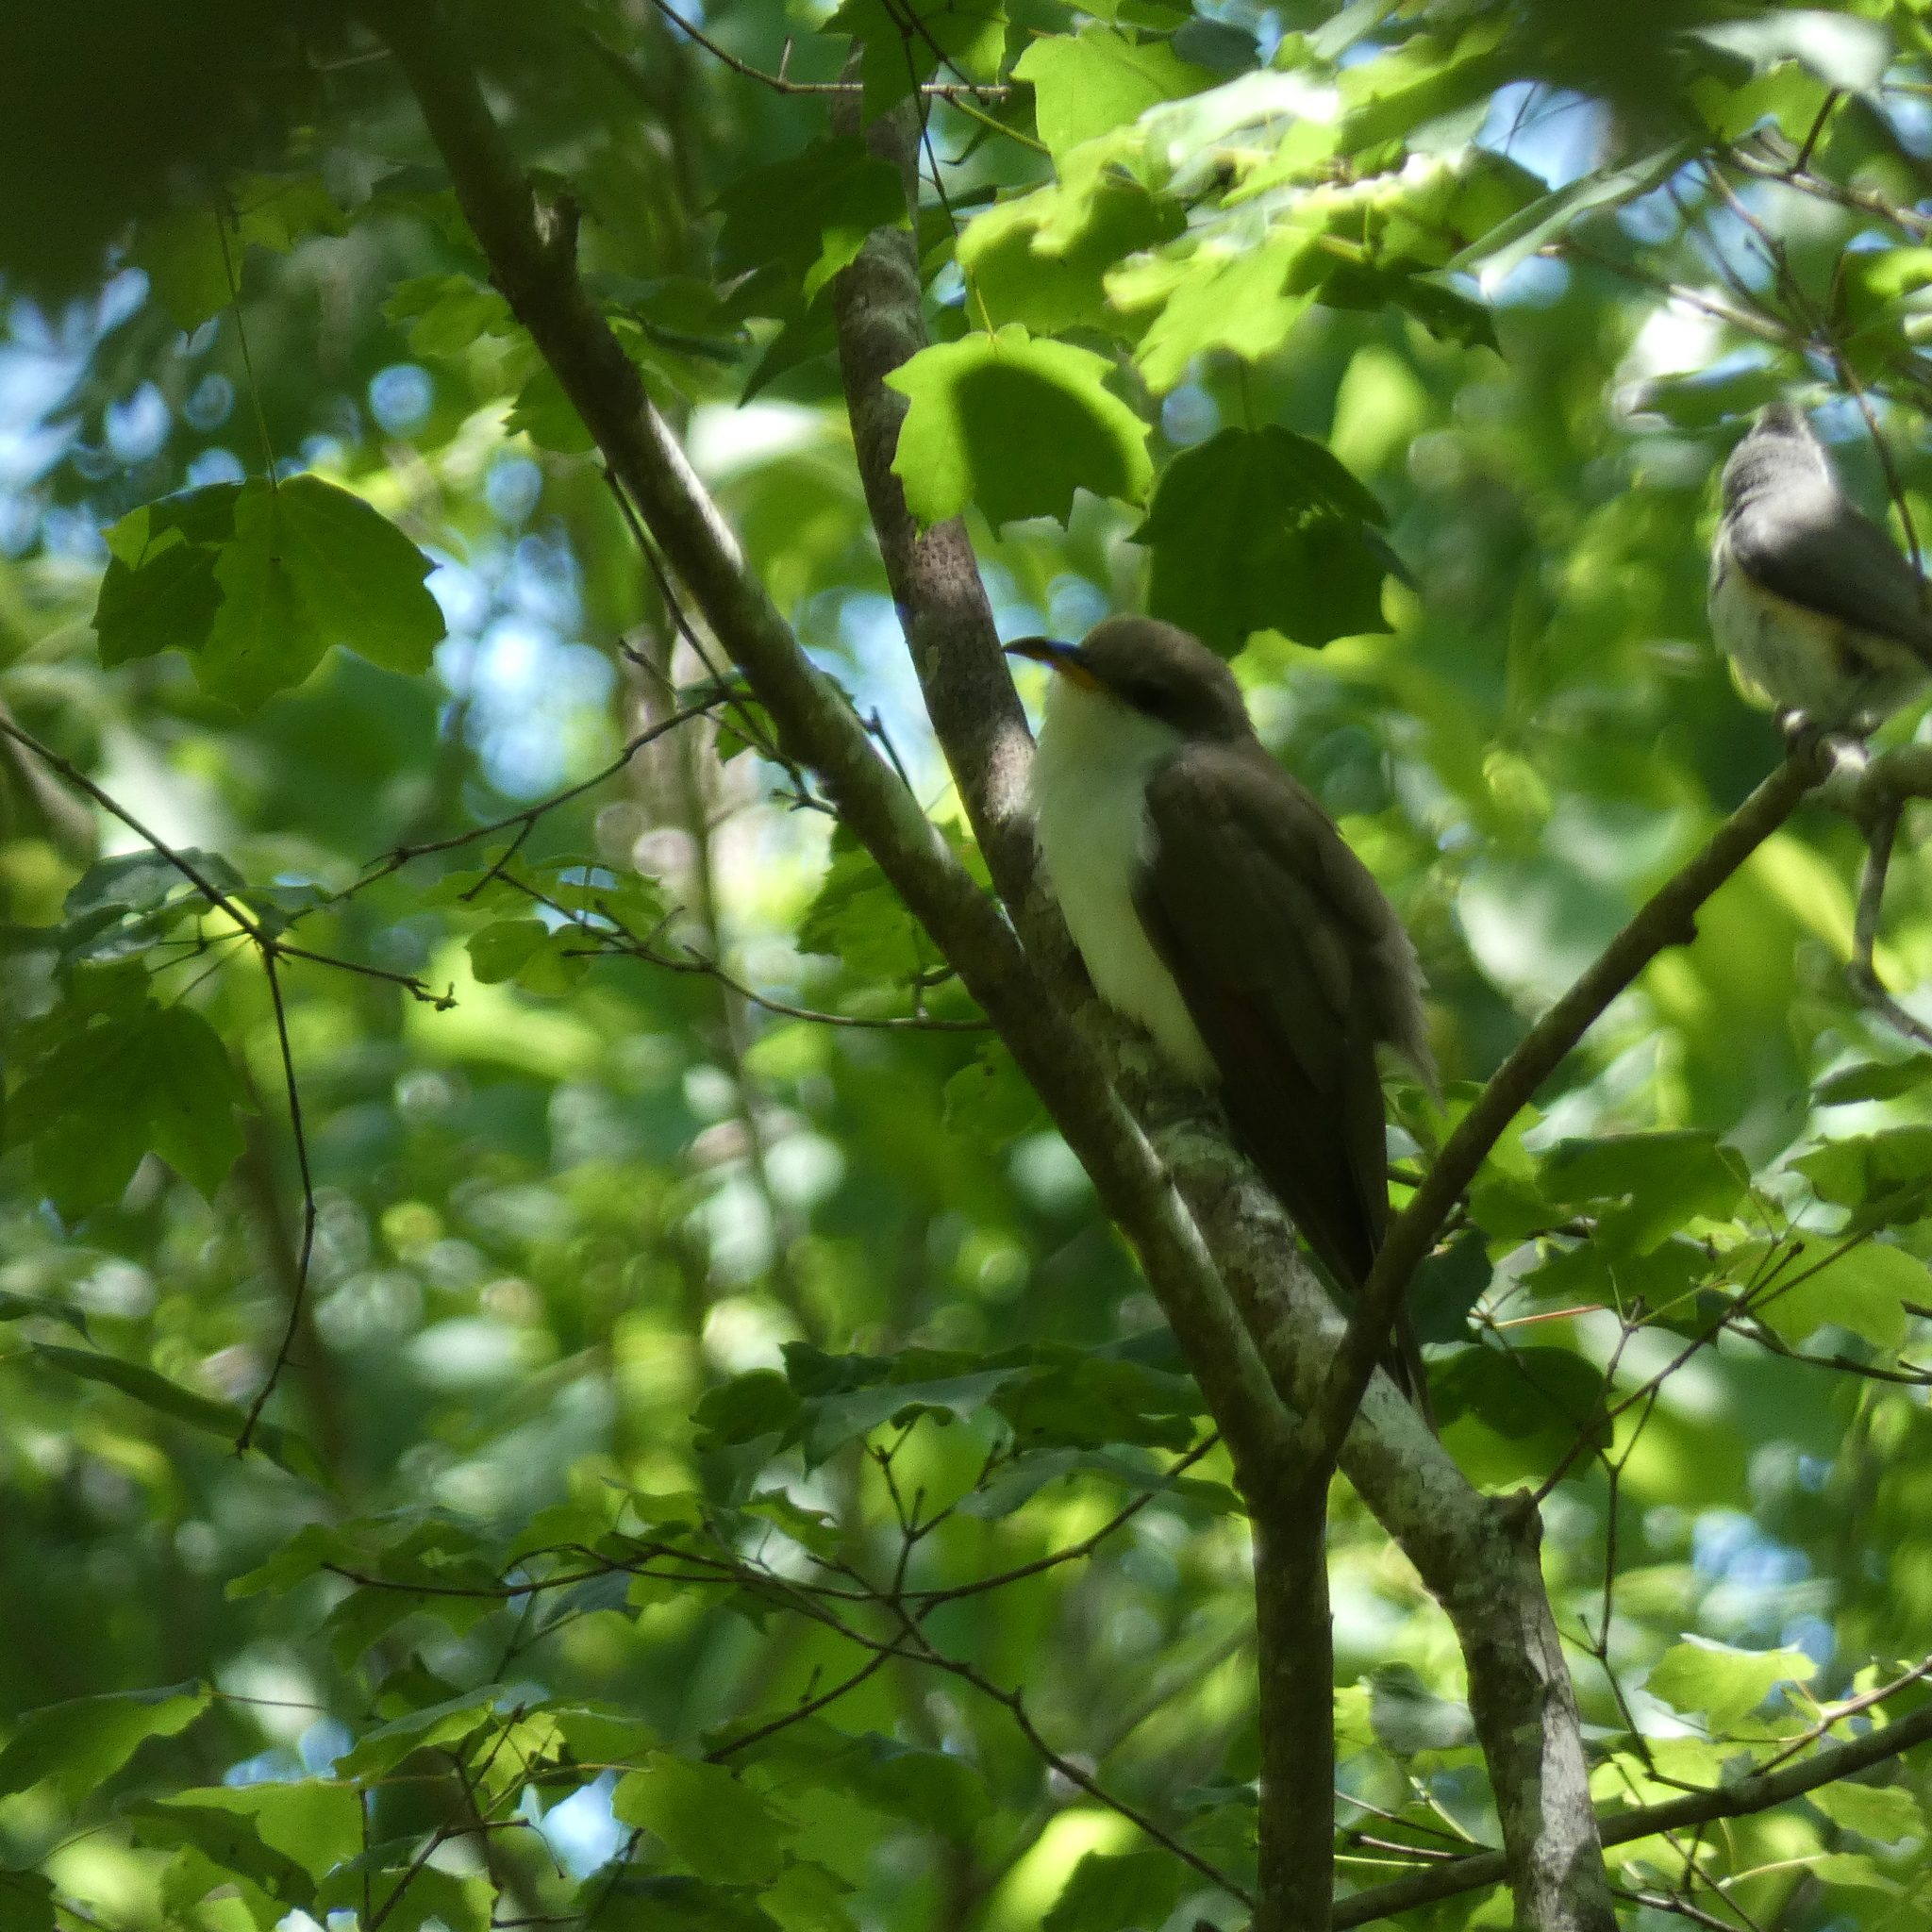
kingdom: Animalia
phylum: Chordata
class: Aves
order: Cuculiformes
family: Cuculidae
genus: Coccyzus
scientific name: Coccyzus americanus
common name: Yellow-billed cuckoo
